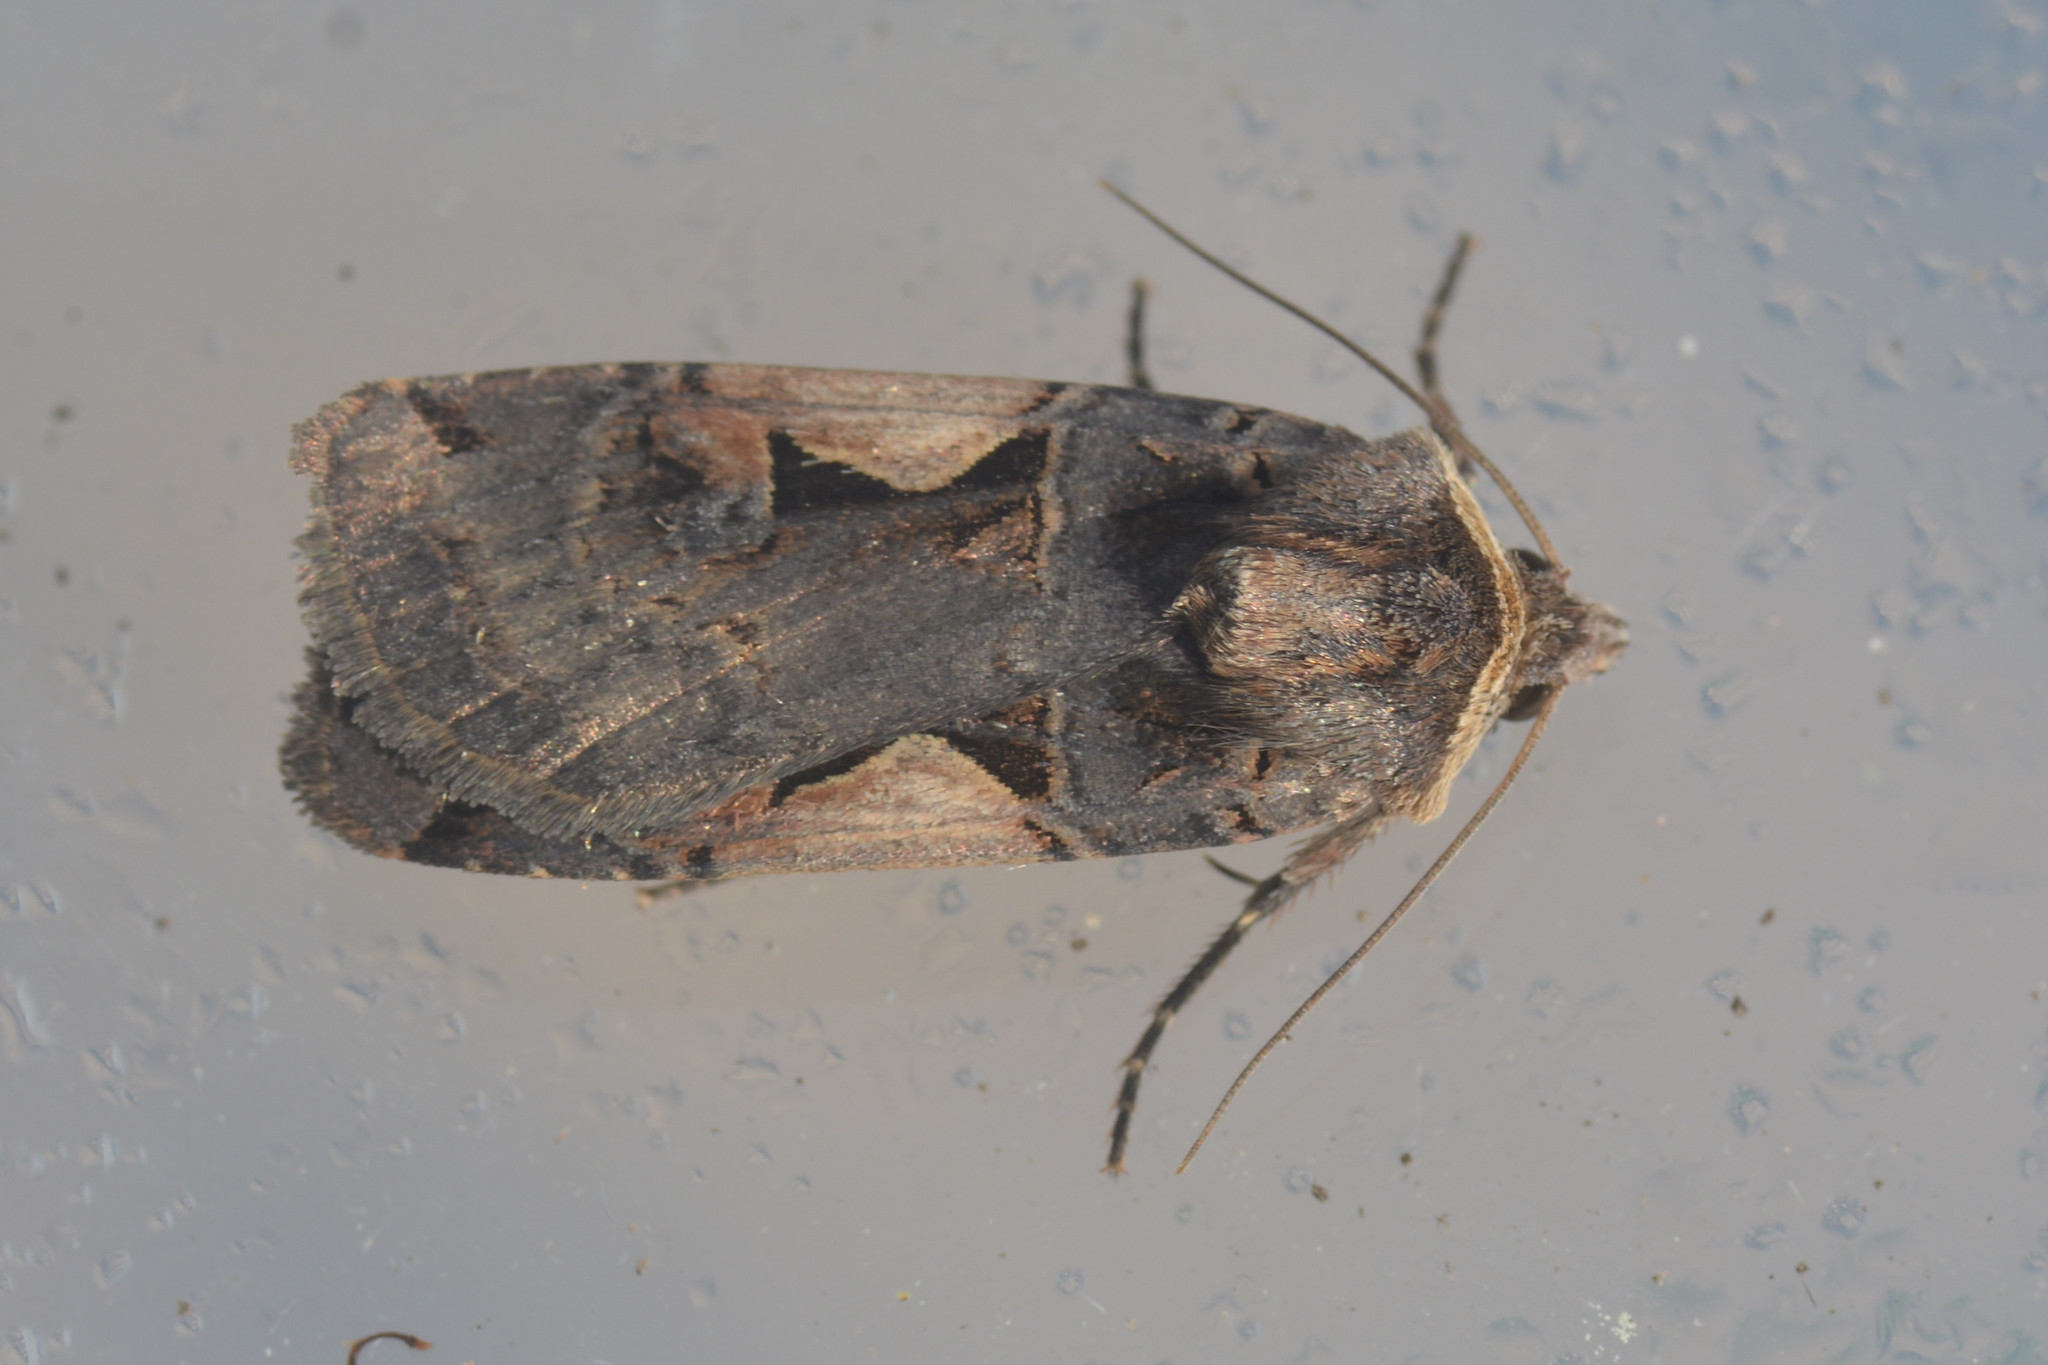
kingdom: Animalia
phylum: Arthropoda
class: Insecta
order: Lepidoptera
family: Noctuidae
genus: Xestia
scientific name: Xestia c-nigrum
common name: Setaceous hebrew character
